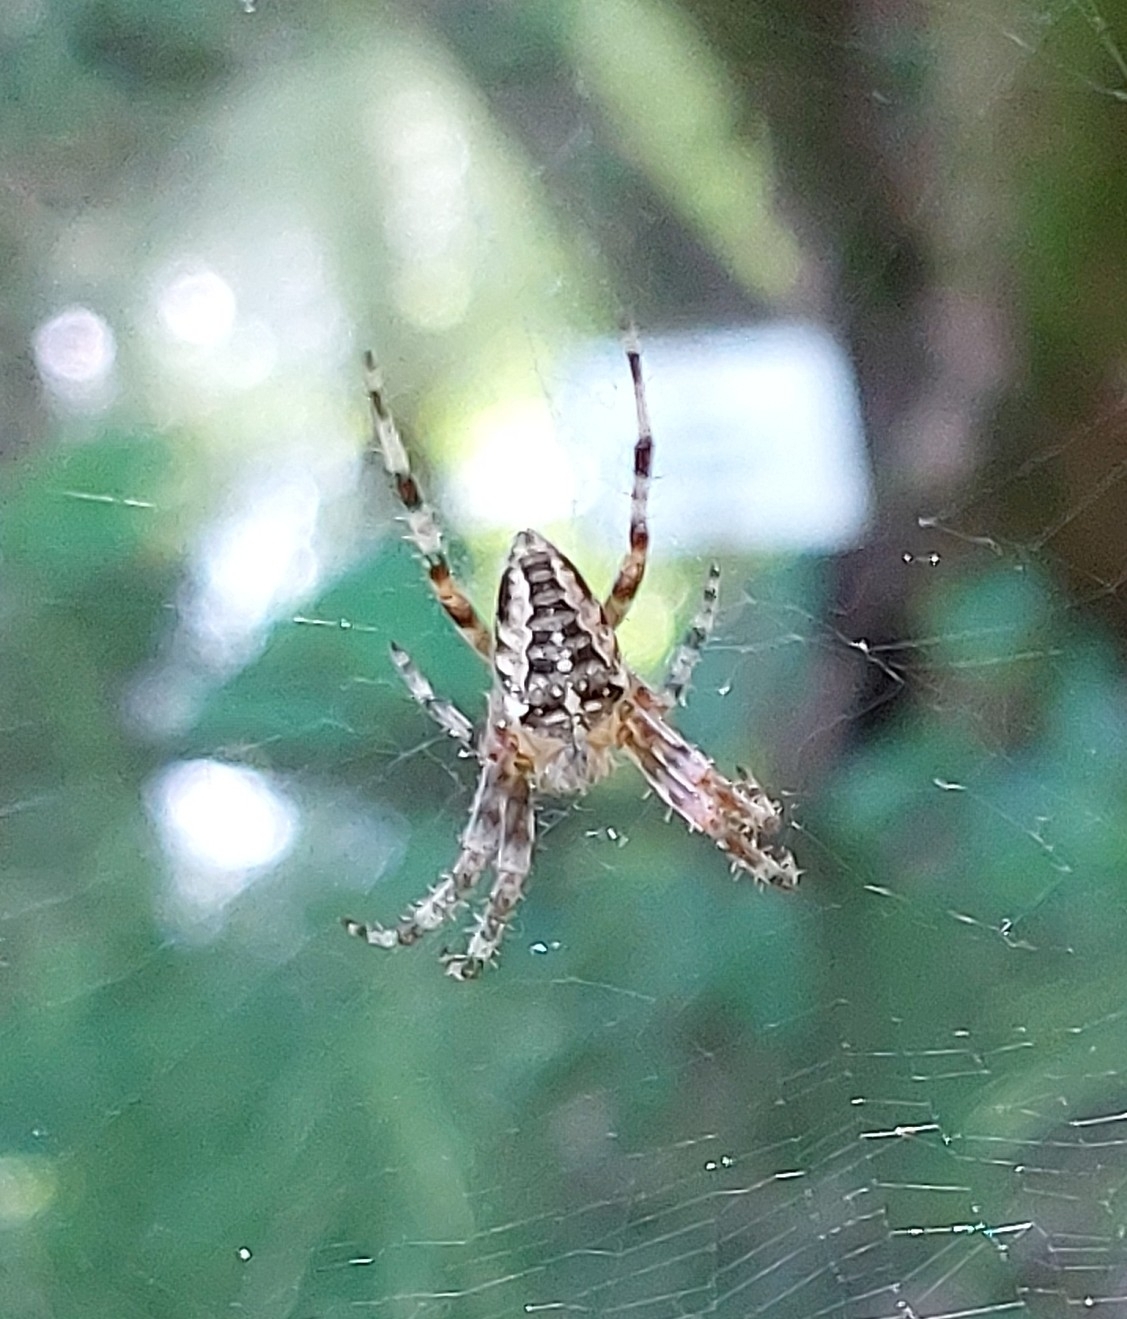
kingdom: Animalia
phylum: Arthropoda
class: Arachnida
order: Araneae
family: Araneidae
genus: Araneus
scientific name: Araneus diadematus
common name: Cross orbweaver
